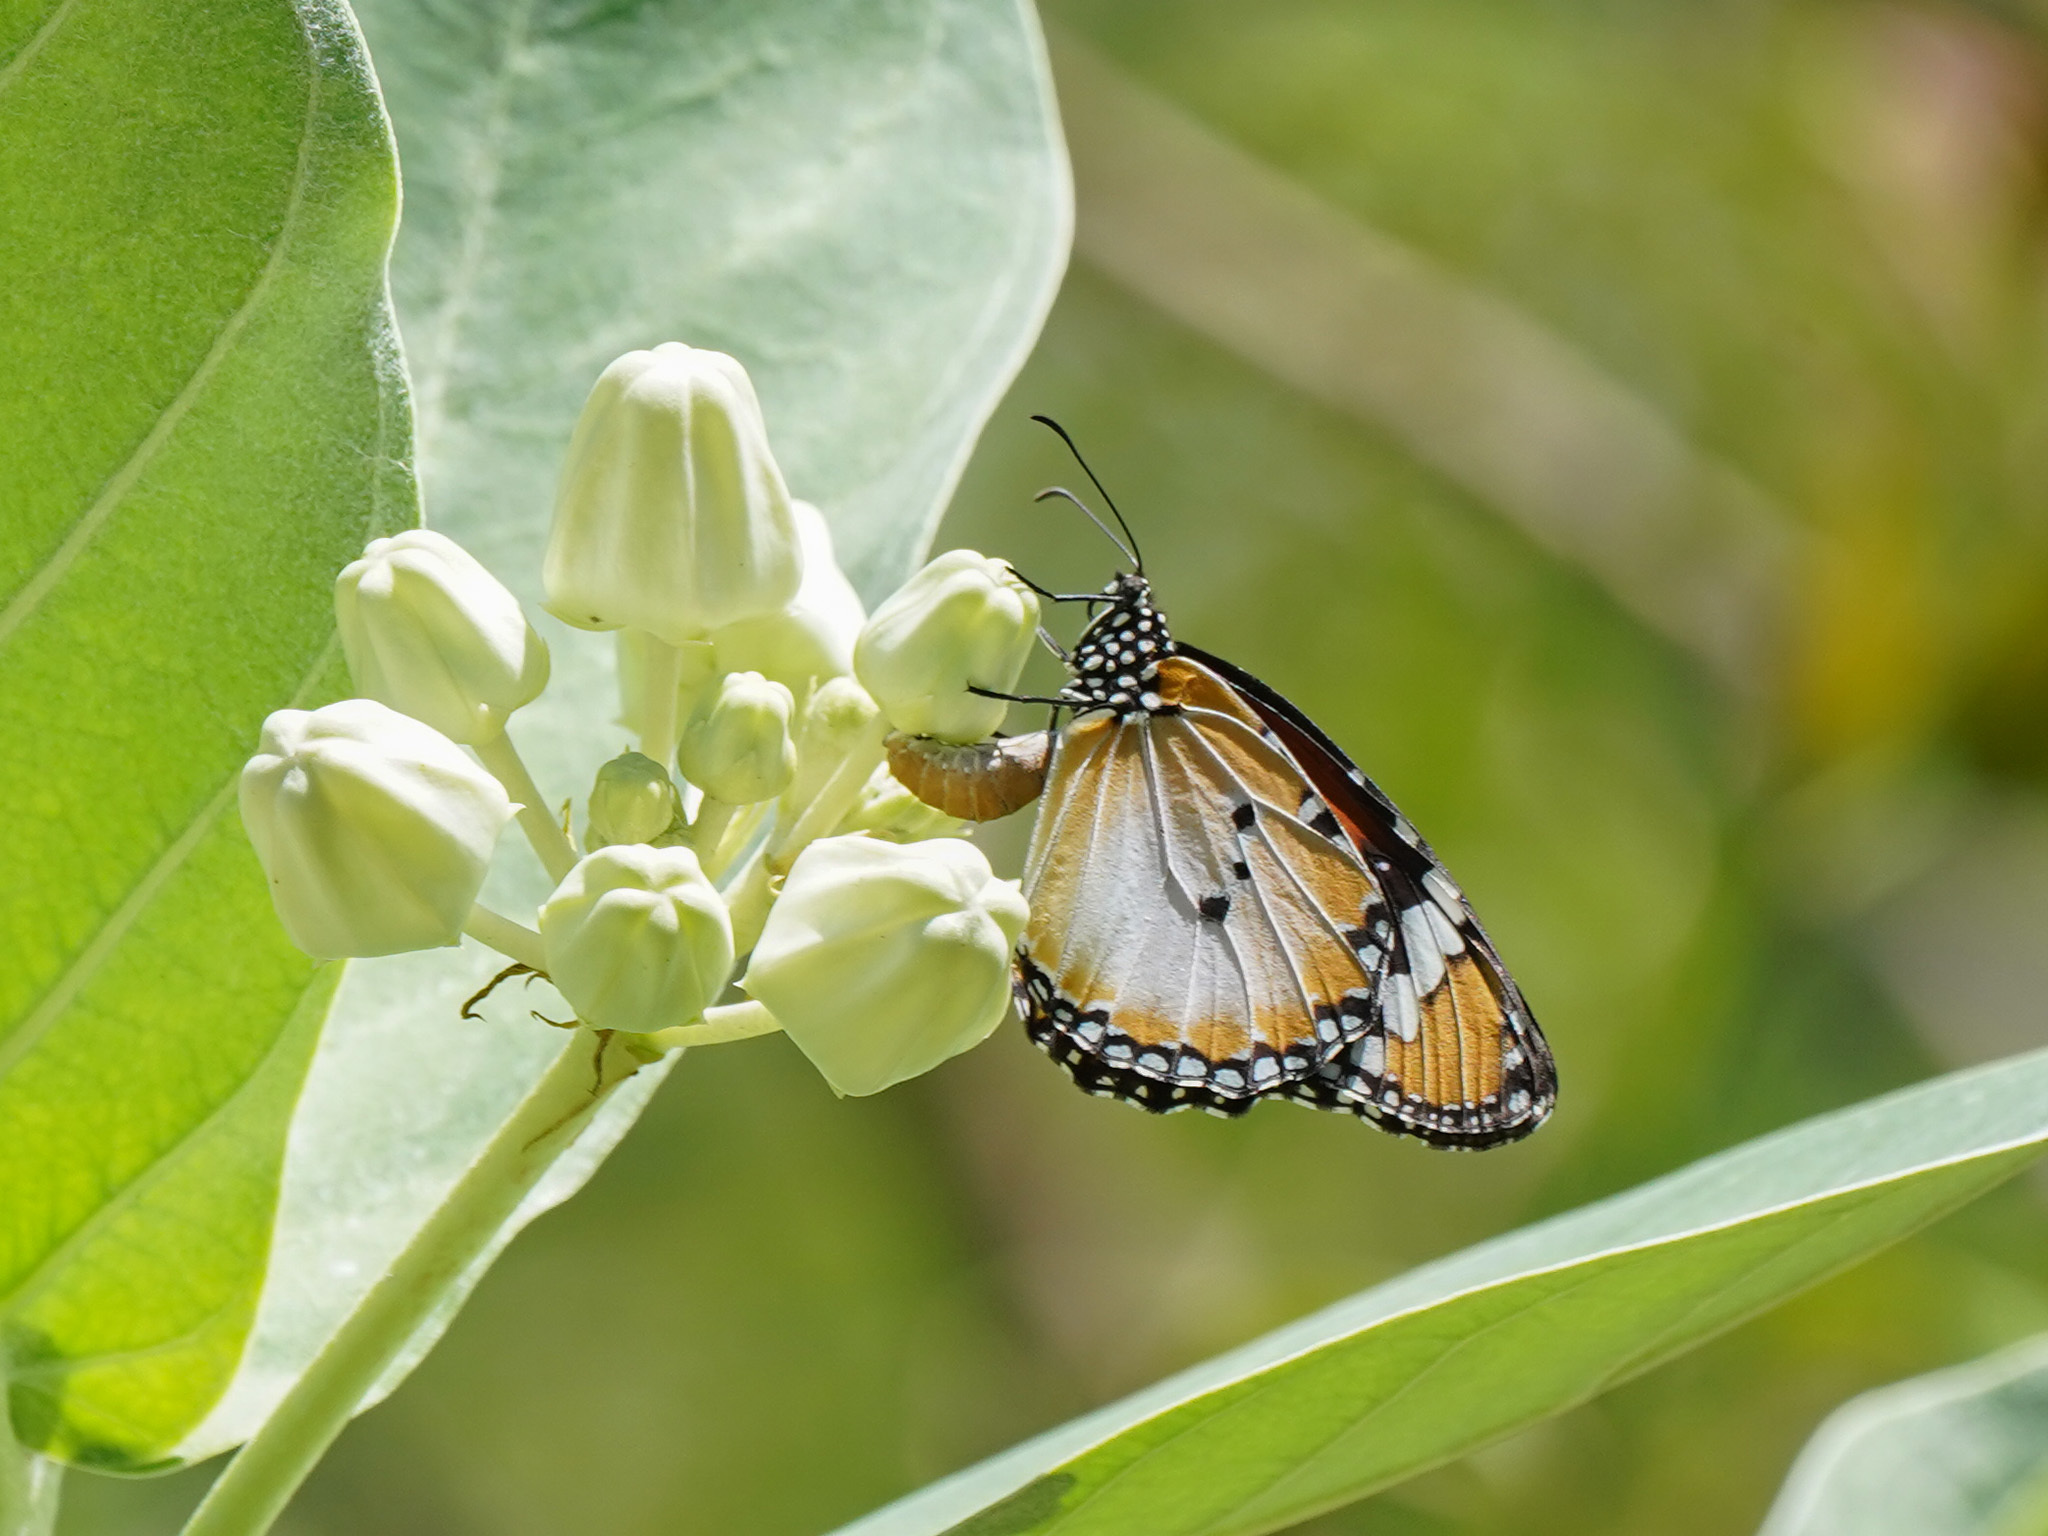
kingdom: Animalia
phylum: Arthropoda
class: Insecta
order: Lepidoptera
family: Nymphalidae
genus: Danaus
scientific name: Danaus chrysippus
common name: Plain tiger
